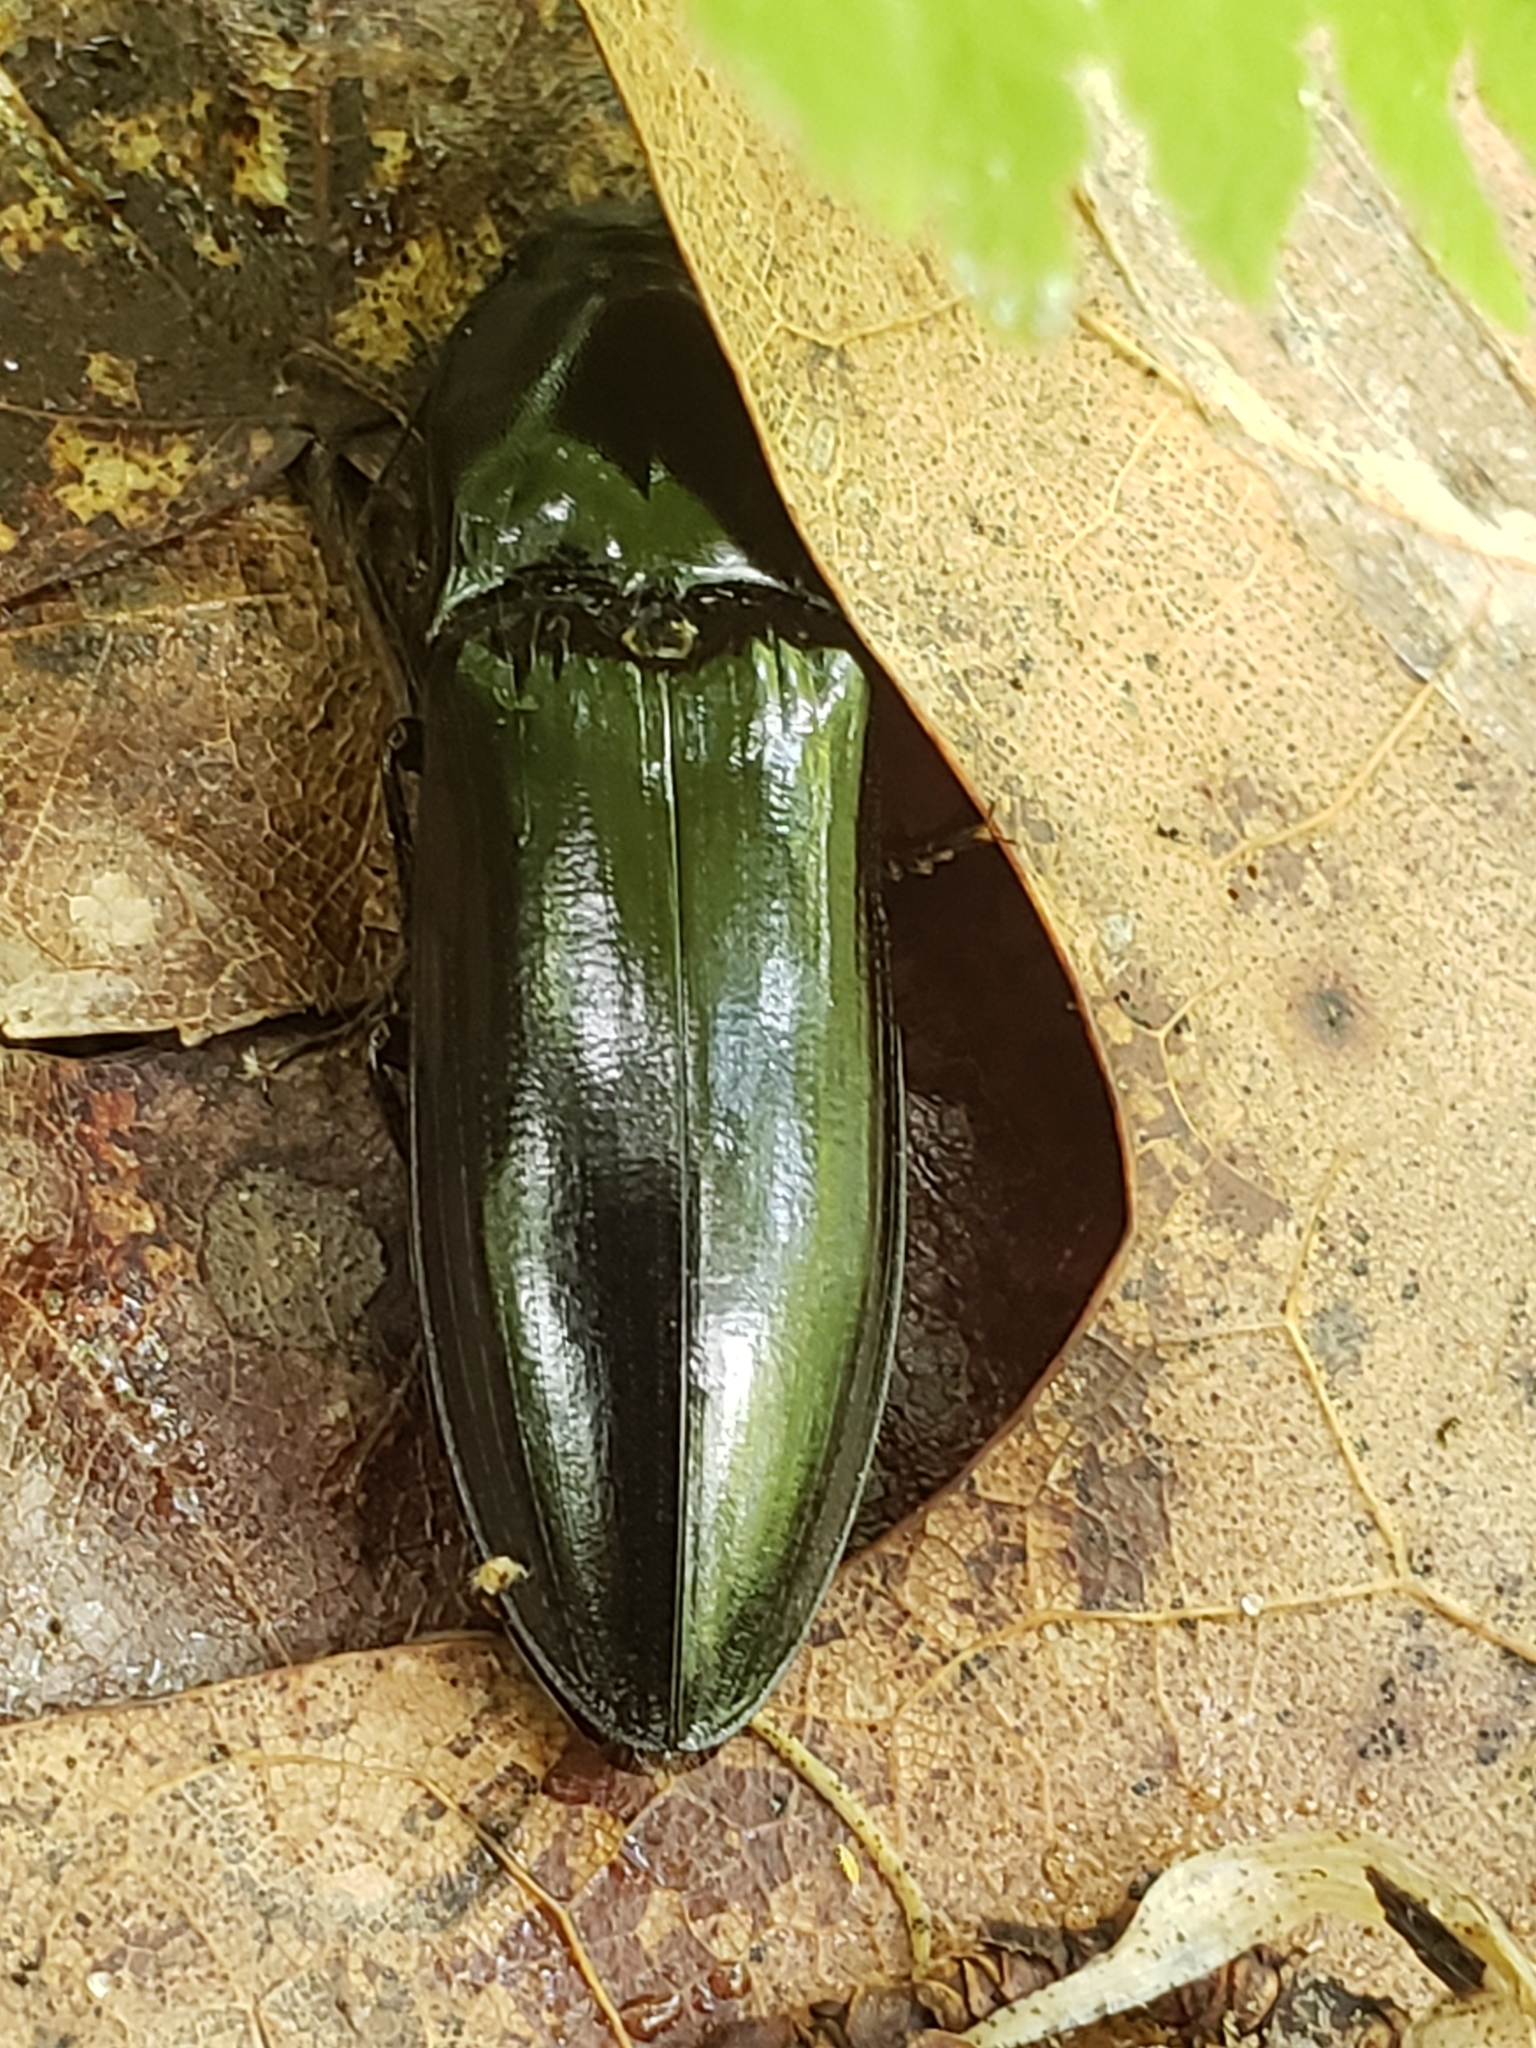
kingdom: Animalia
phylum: Arthropoda
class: Insecta
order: Coleoptera
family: Elateridae
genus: Melanactes
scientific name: Melanactes piceus
